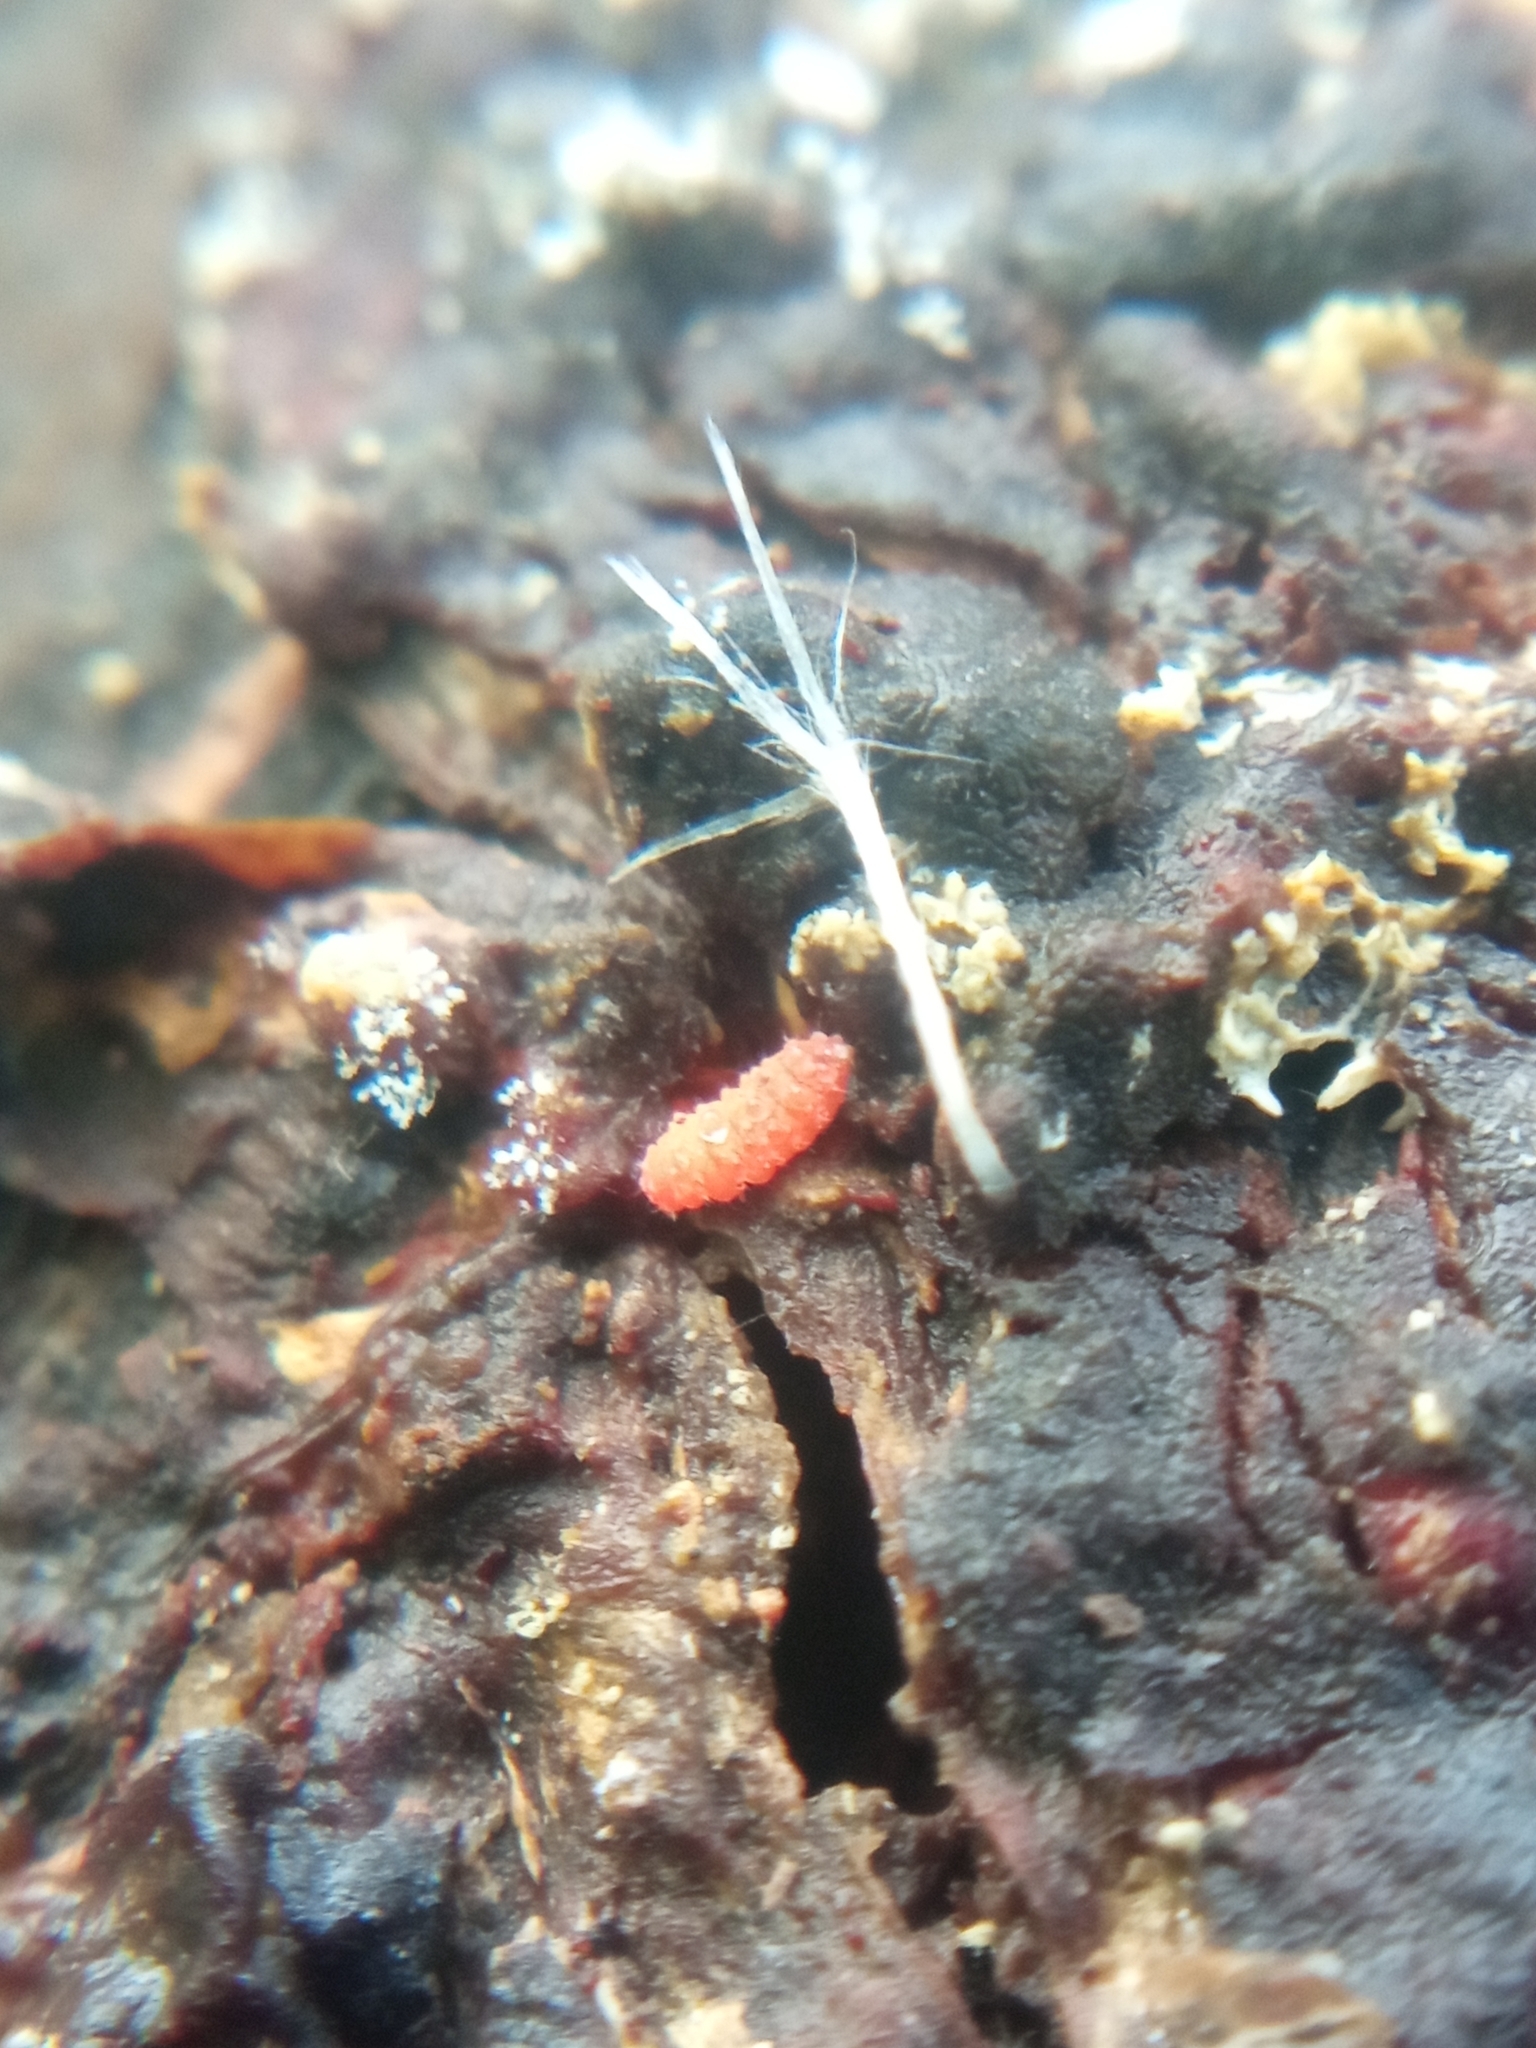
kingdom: Animalia
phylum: Arthropoda
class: Collembola
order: Poduromorpha
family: Neanuridae
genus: Bilobella
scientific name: Bilobella braunerae
